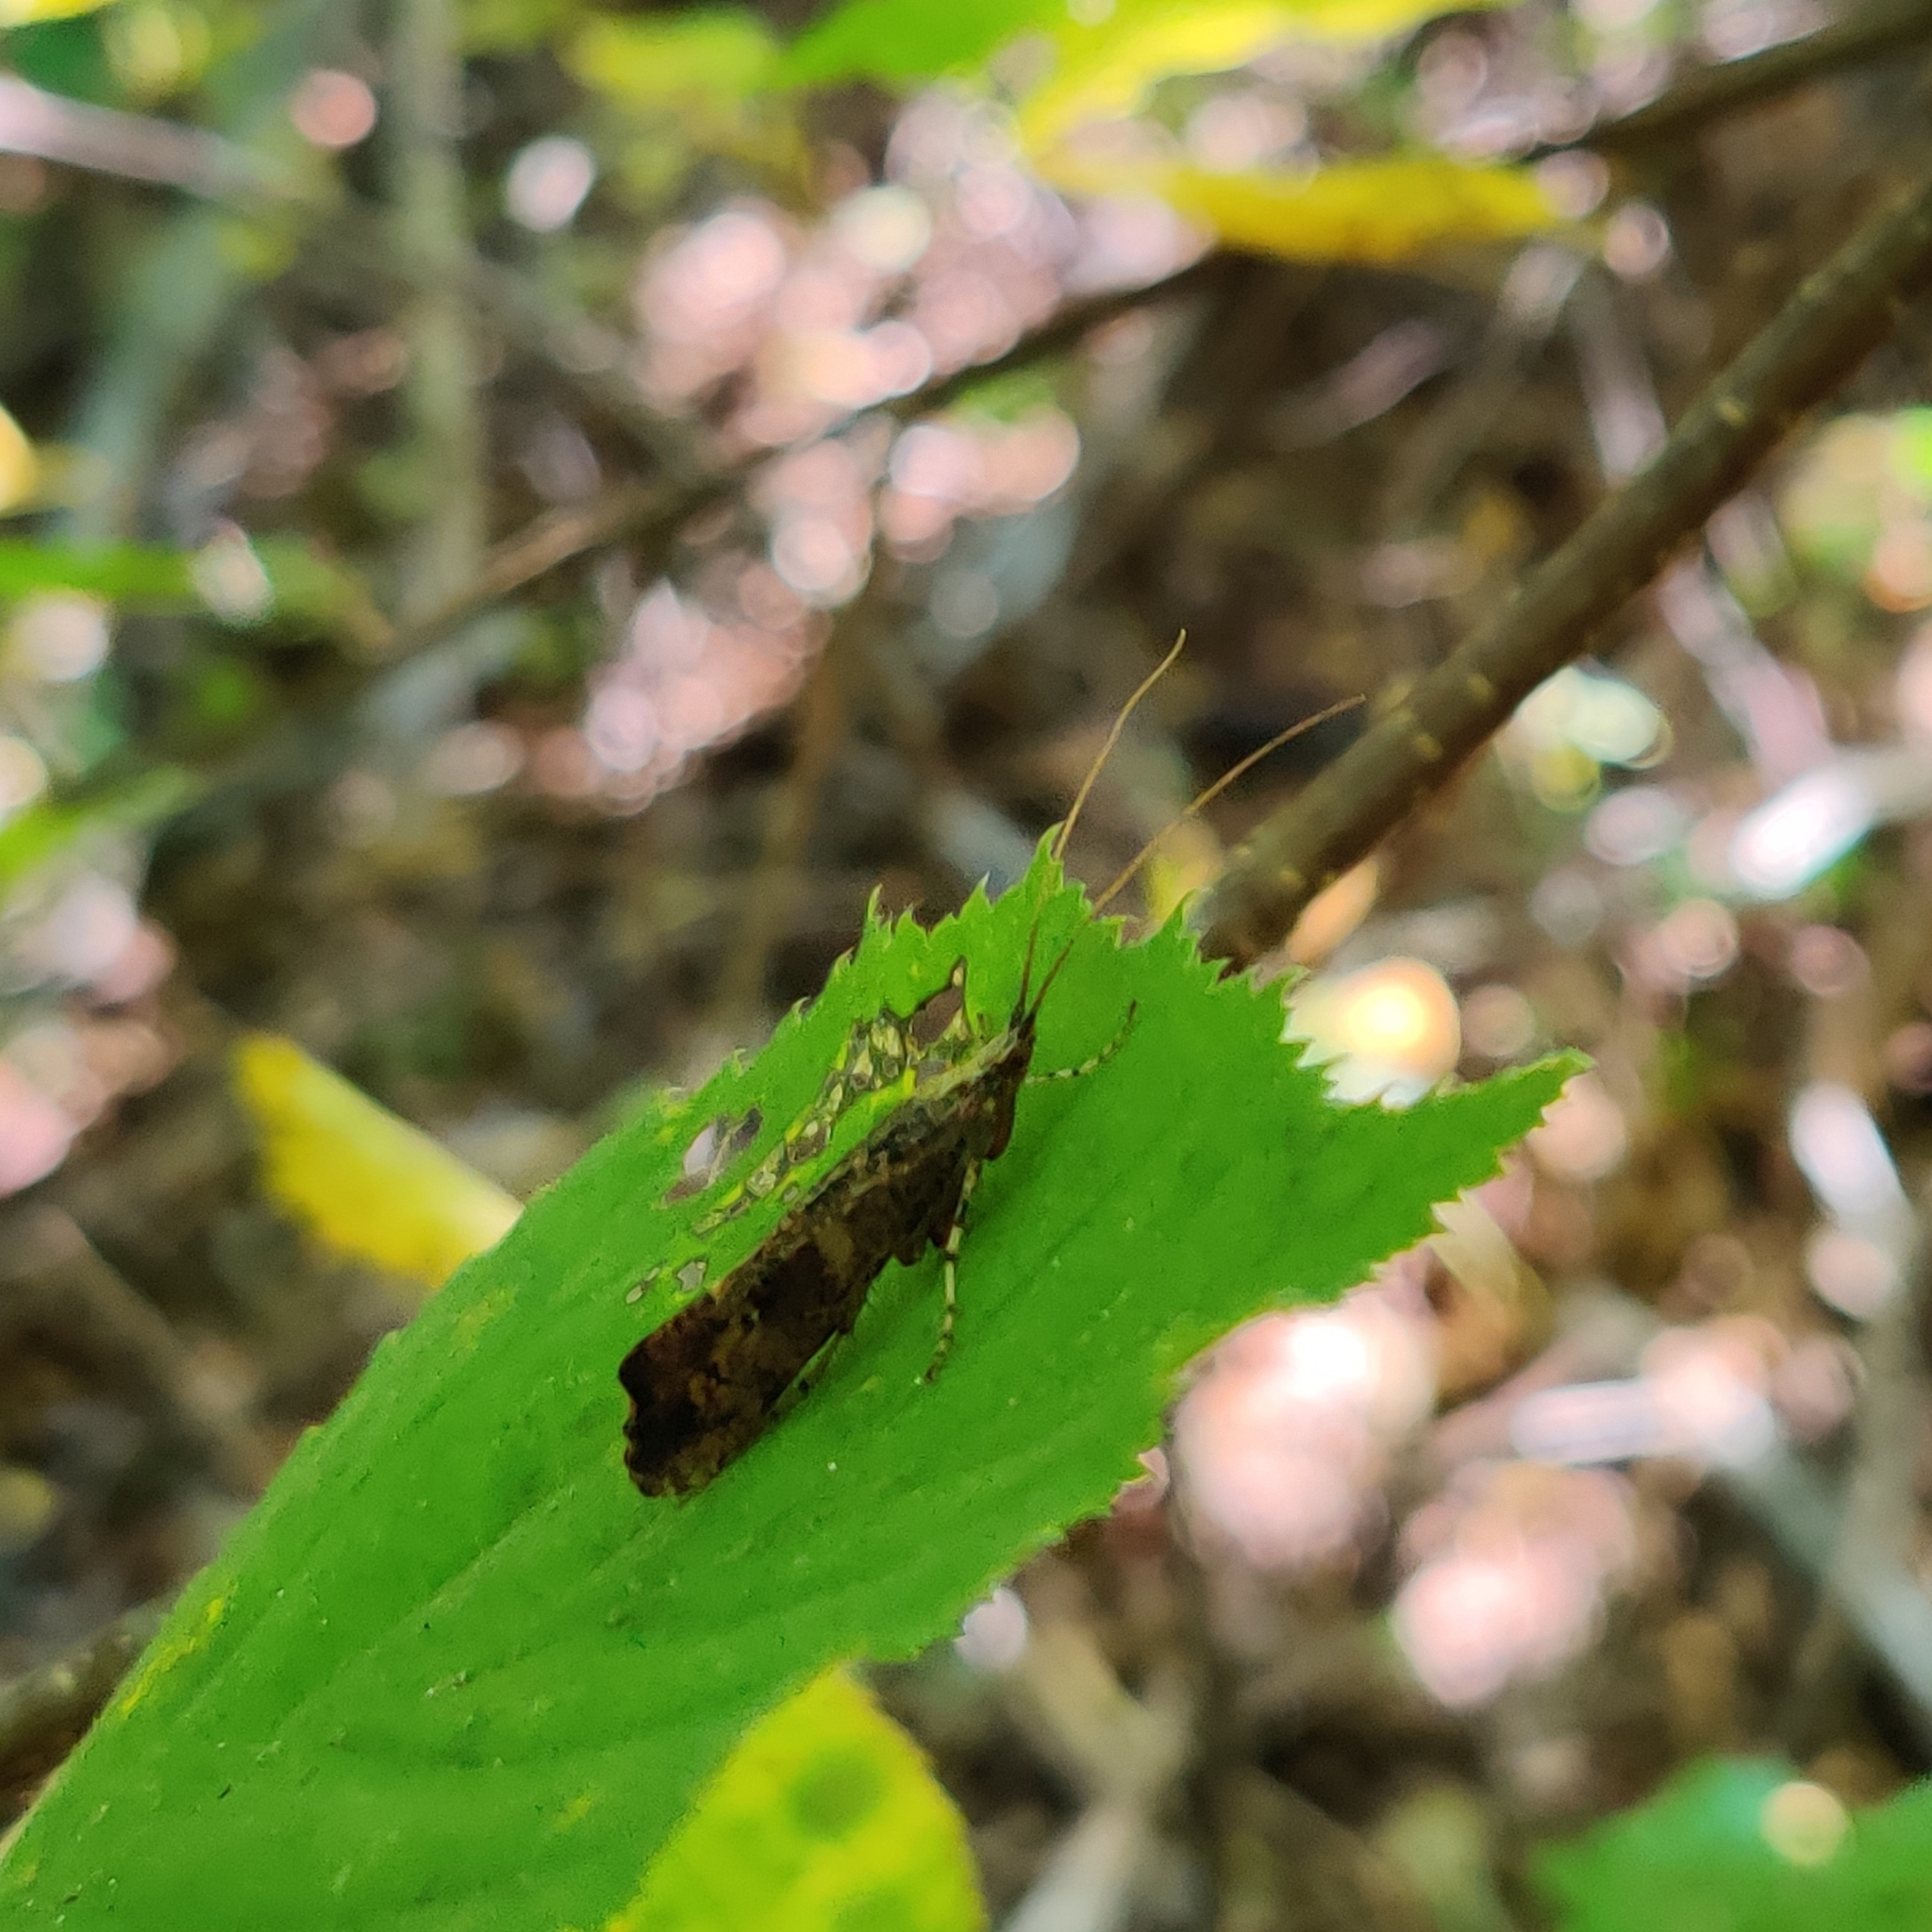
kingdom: Animalia
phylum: Arthropoda
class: Insecta
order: Trichoptera
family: Limnephilidae
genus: Glyphotaelius
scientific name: Glyphotaelius pellucidus
